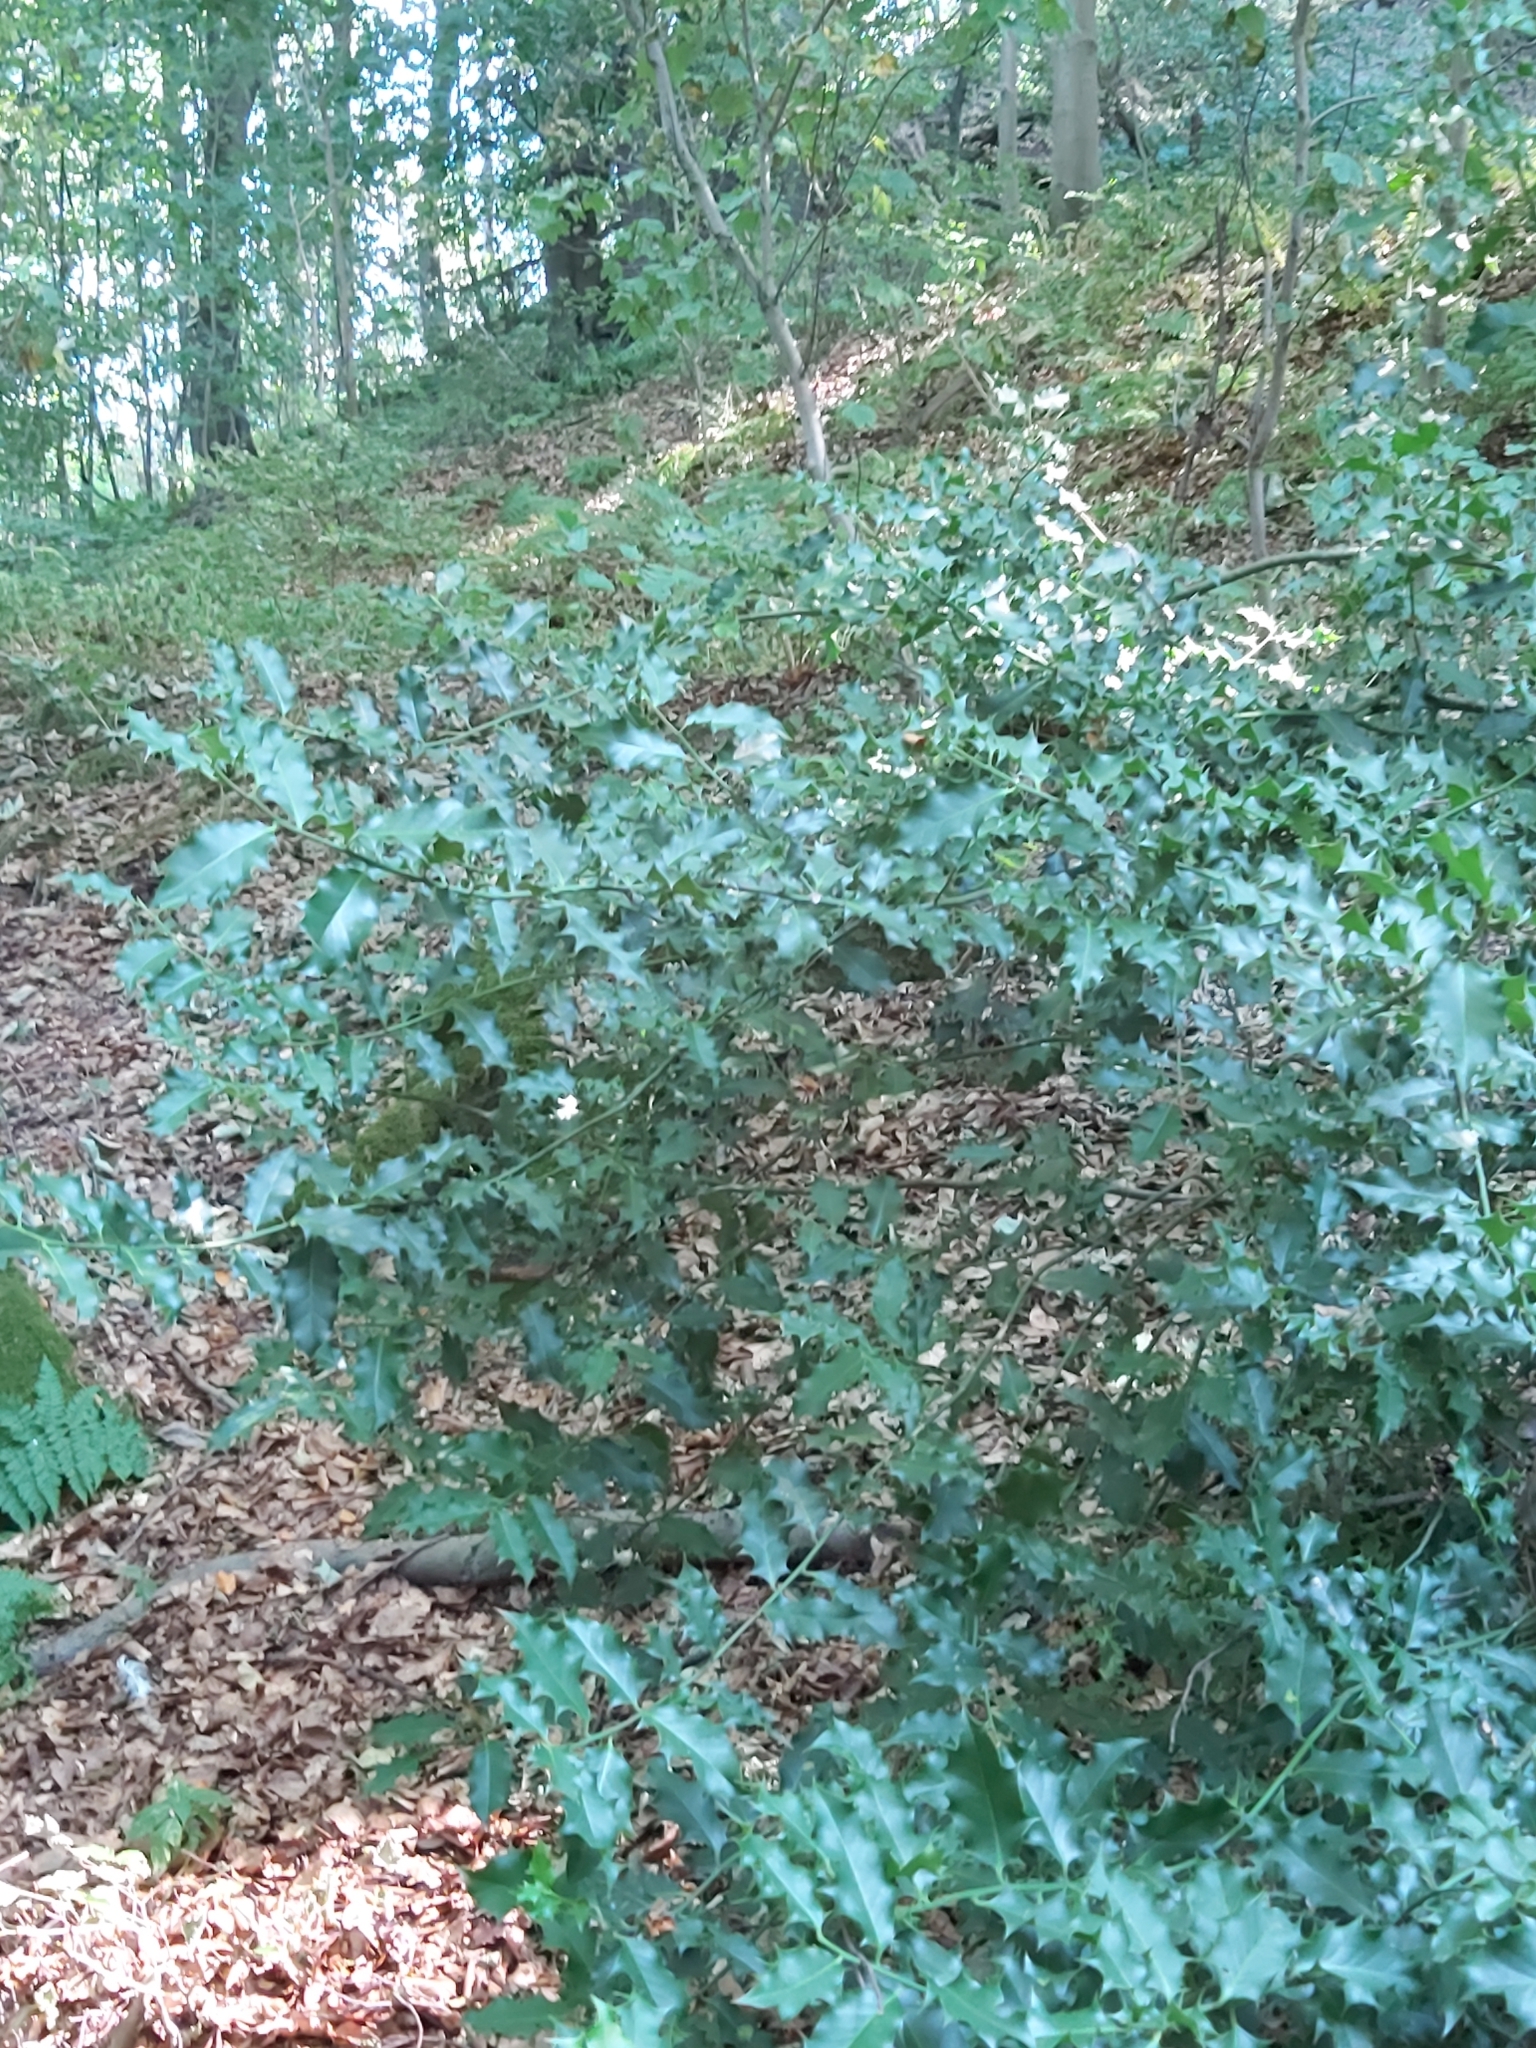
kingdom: Plantae
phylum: Tracheophyta
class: Magnoliopsida
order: Aquifoliales
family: Aquifoliaceae
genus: Ilex
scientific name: Ilex aquifolium
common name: English holly
